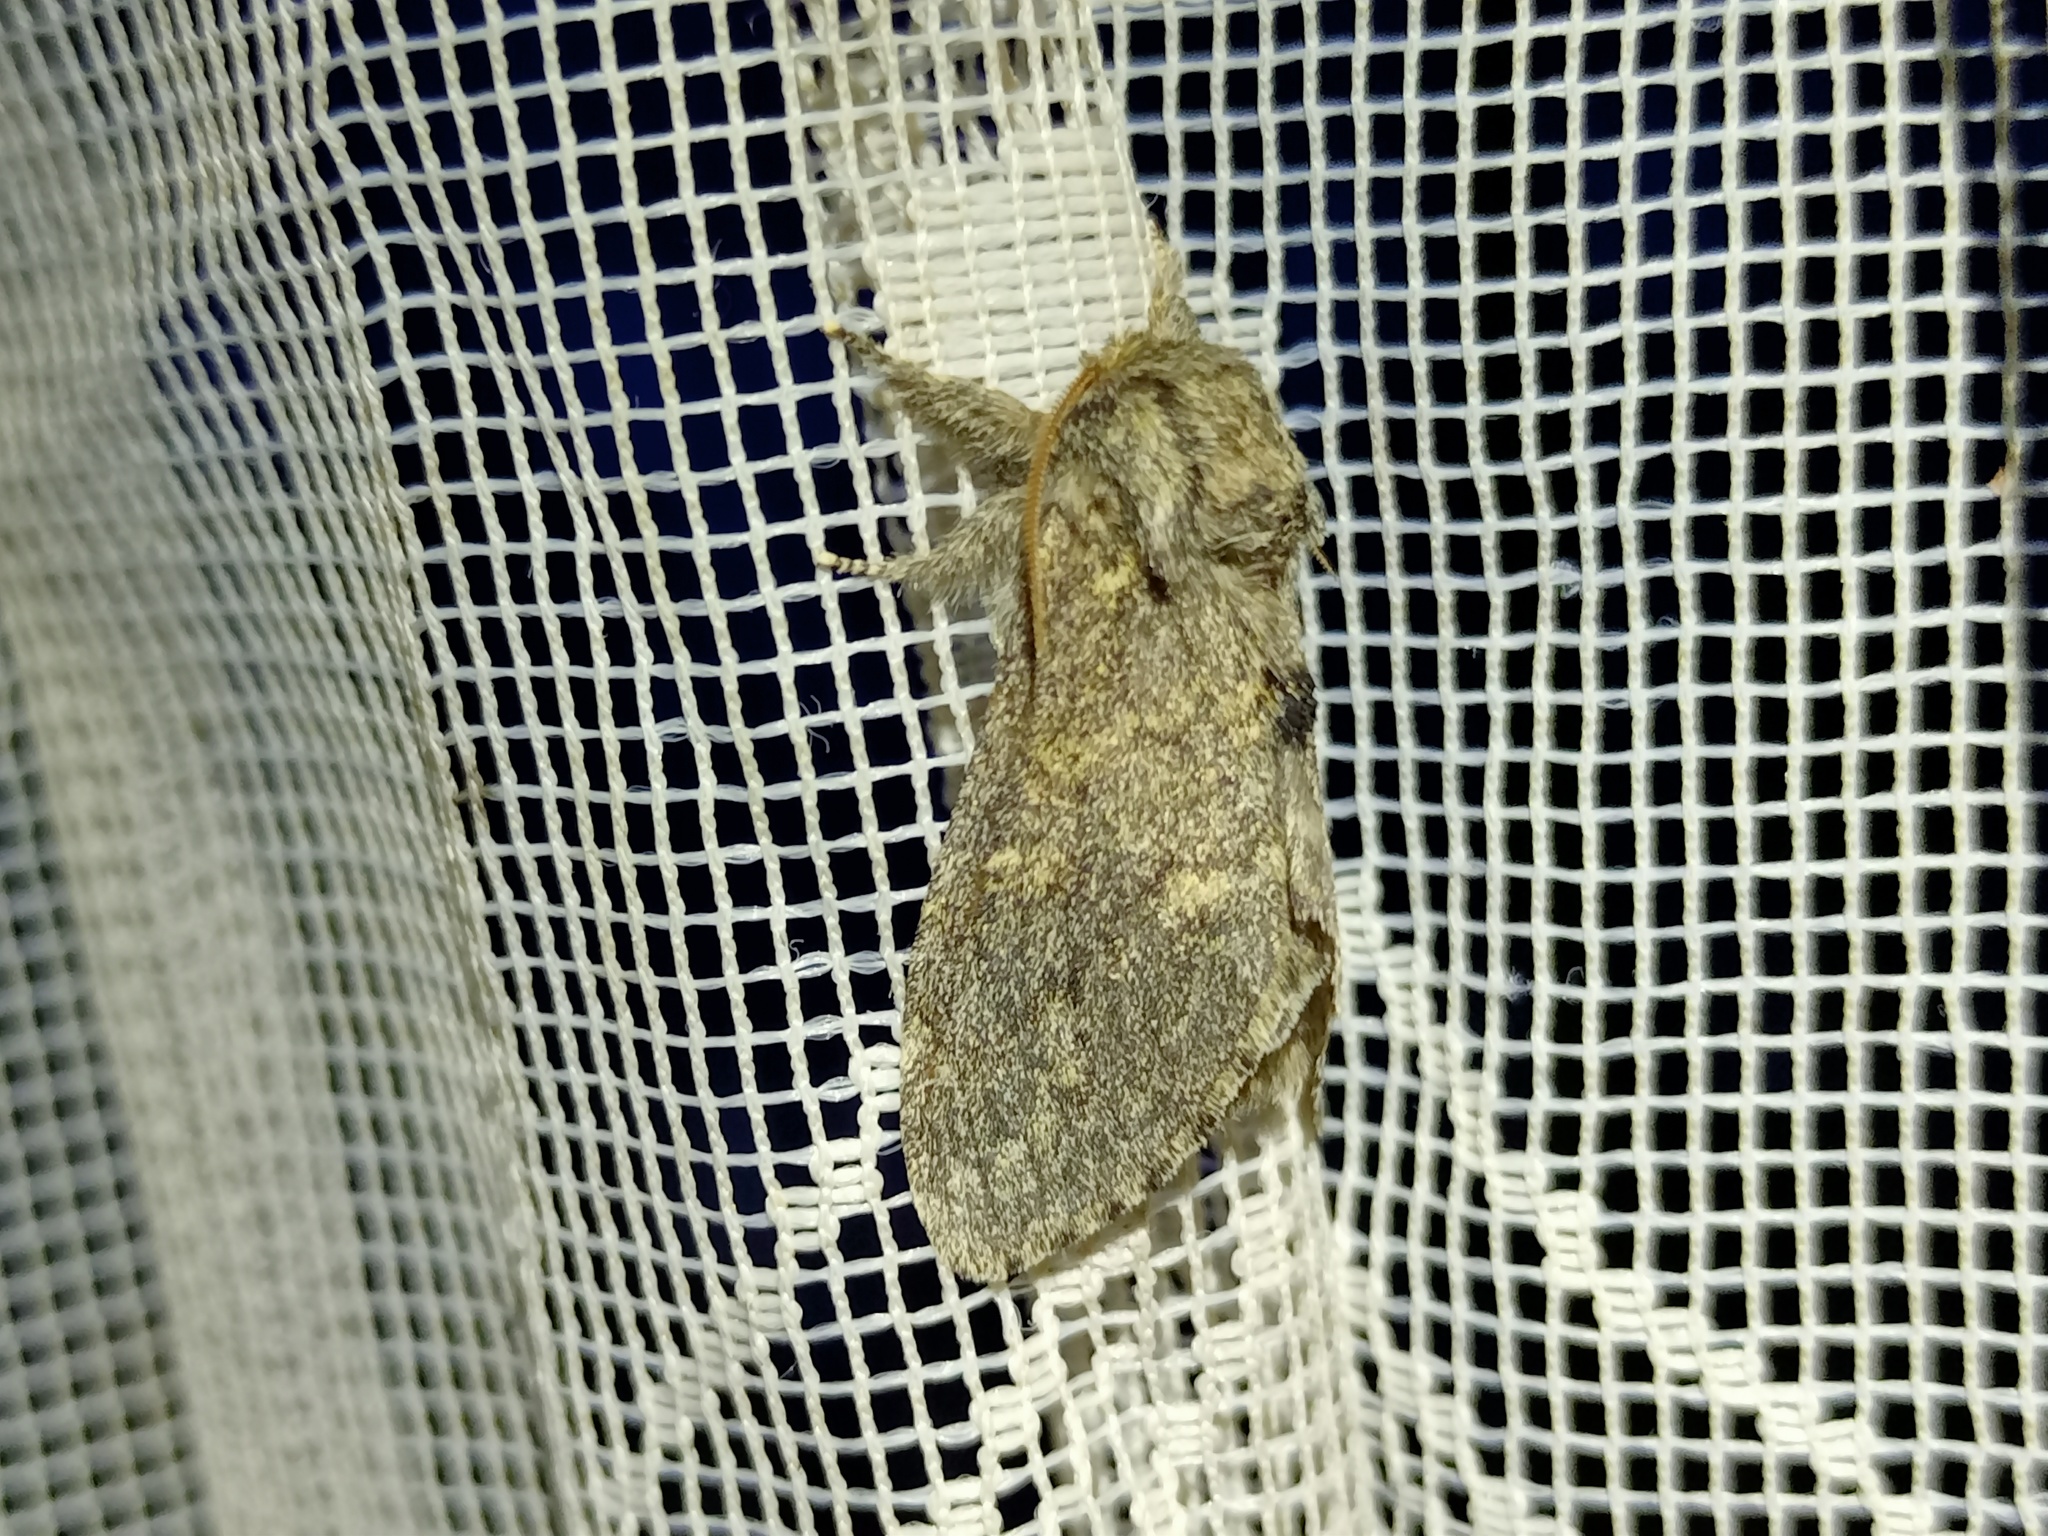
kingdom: Animalia
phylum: Arthropoda
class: Insecta
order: Lepidoptera
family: Notodontidae
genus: Notodonta
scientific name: Notodonta torva
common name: Large dark prominent
